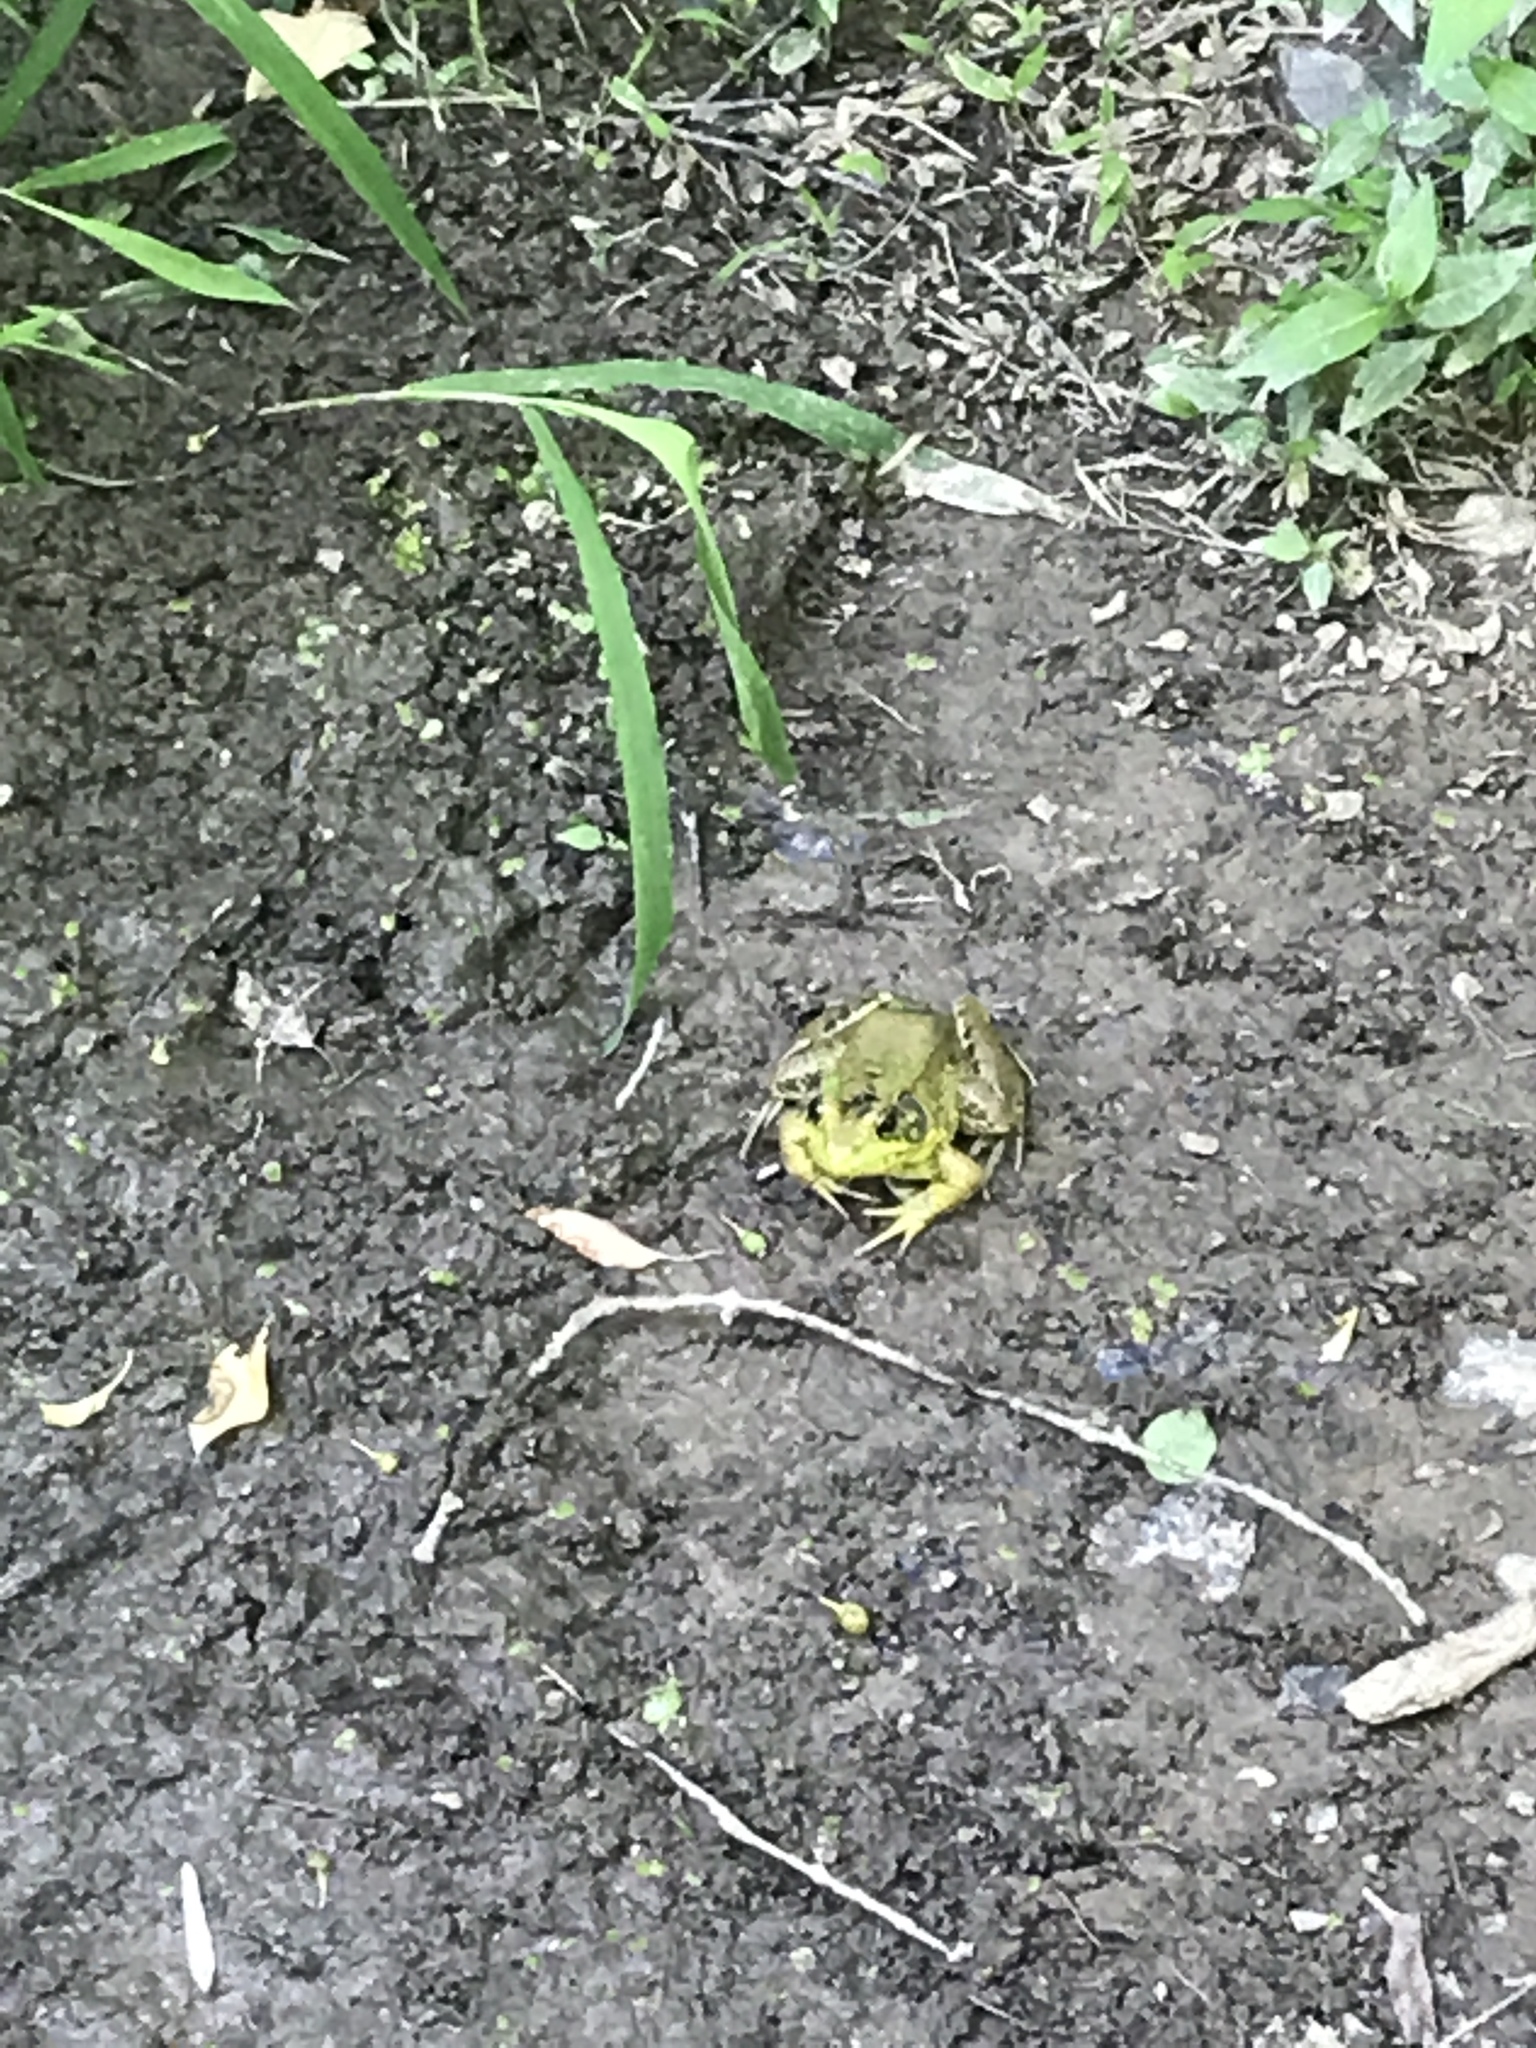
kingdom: Animalia
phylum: Chordata
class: Amphibia
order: Anura
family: Ranidae
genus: Lithobates
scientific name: Lithobates clamitans
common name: Green frog
